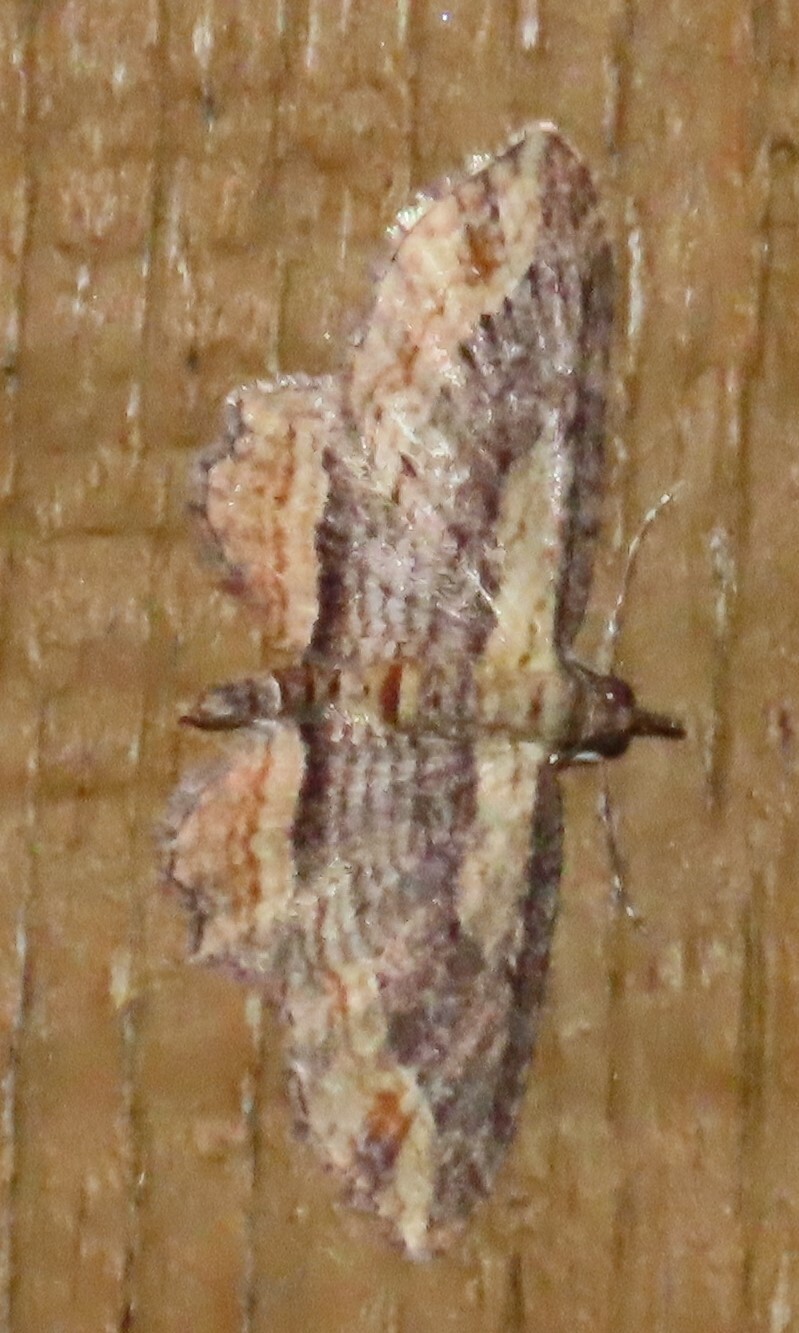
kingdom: Animalia
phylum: Arthropoda
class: Insecta
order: Lepidoptera
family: Geometridae
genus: Chloroclystis
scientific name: Chloroclystis filata
